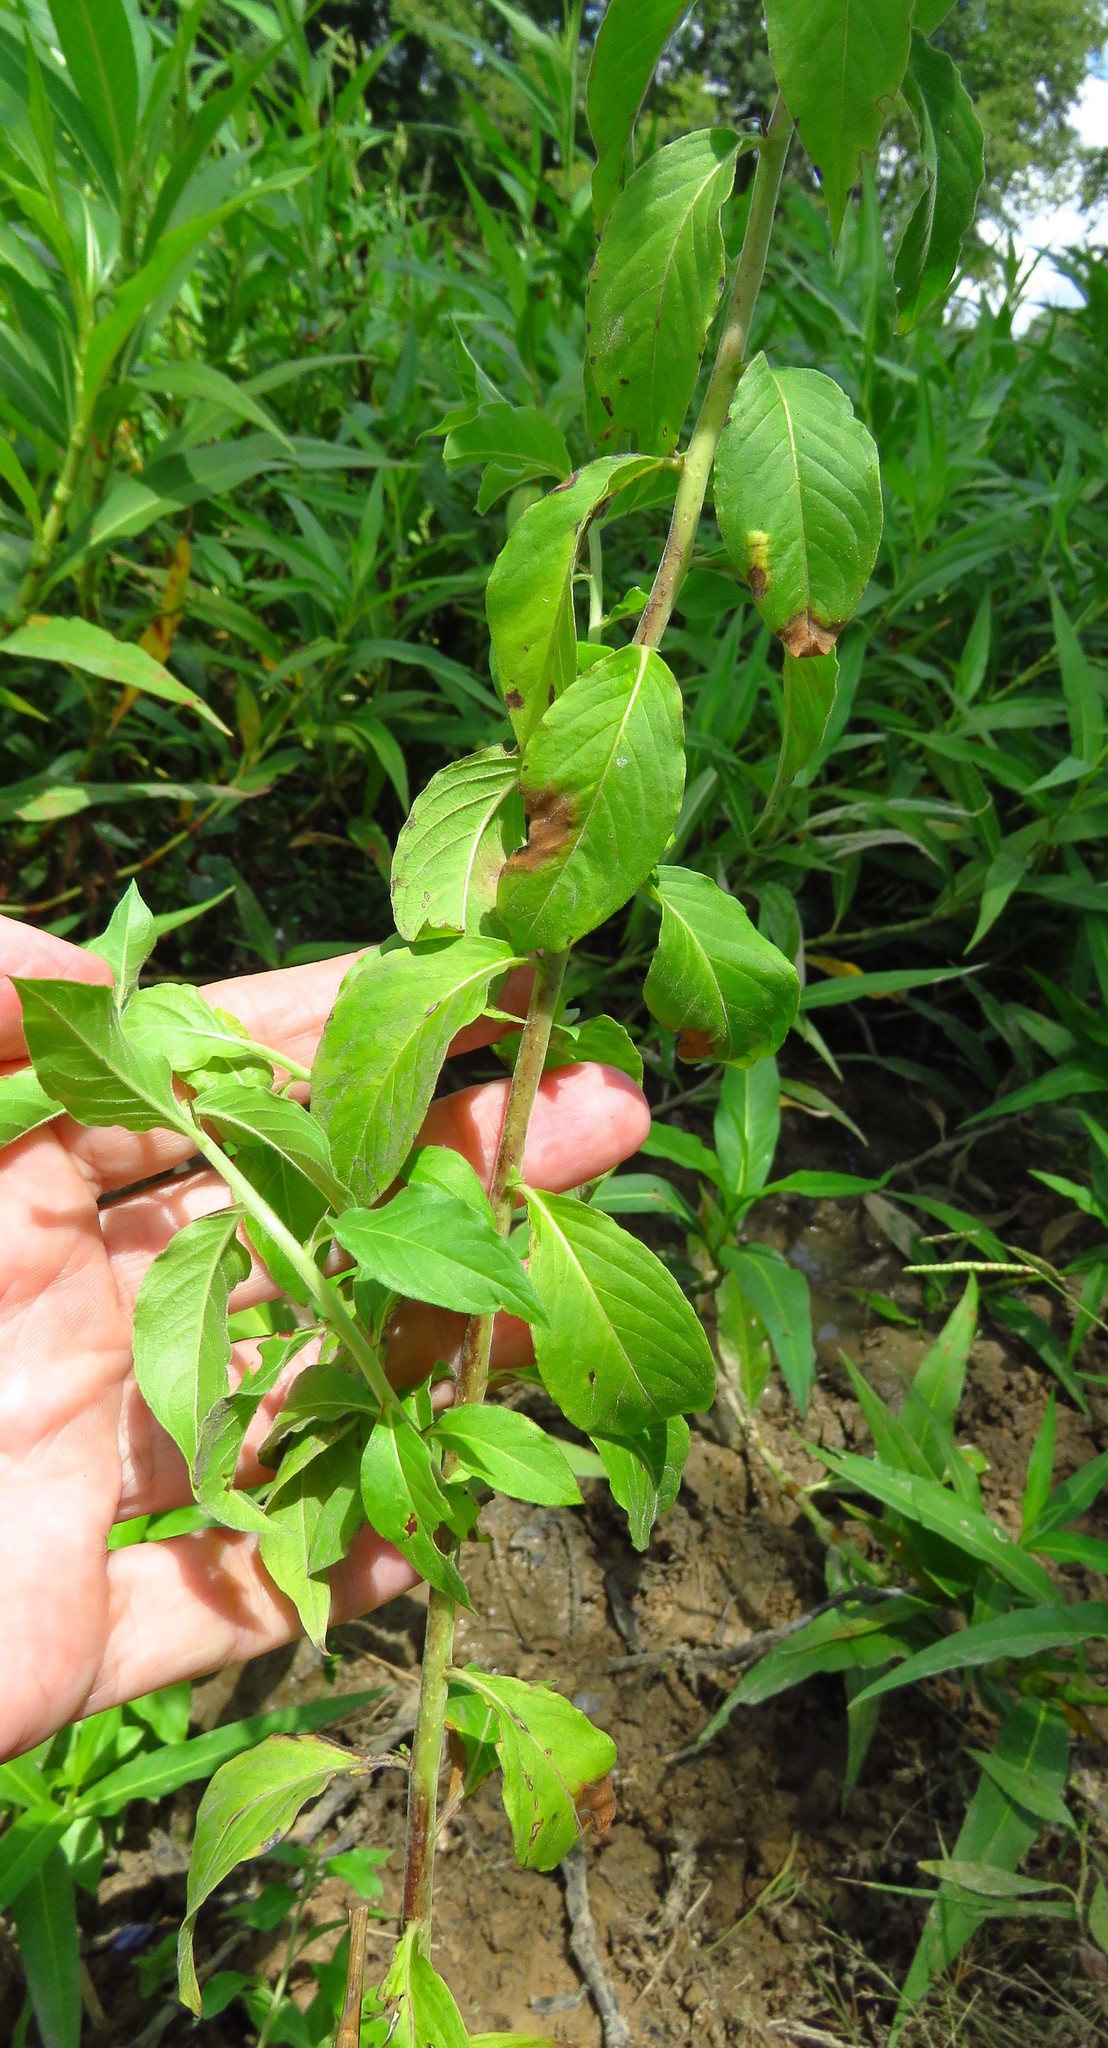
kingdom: Plantae
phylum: Tracheophyta
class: Magnoliopsida
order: Solanales
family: Hydroleaceae
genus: Hydrolea
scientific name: Hydrolea ovata
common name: Ovate false fiddleleaf
